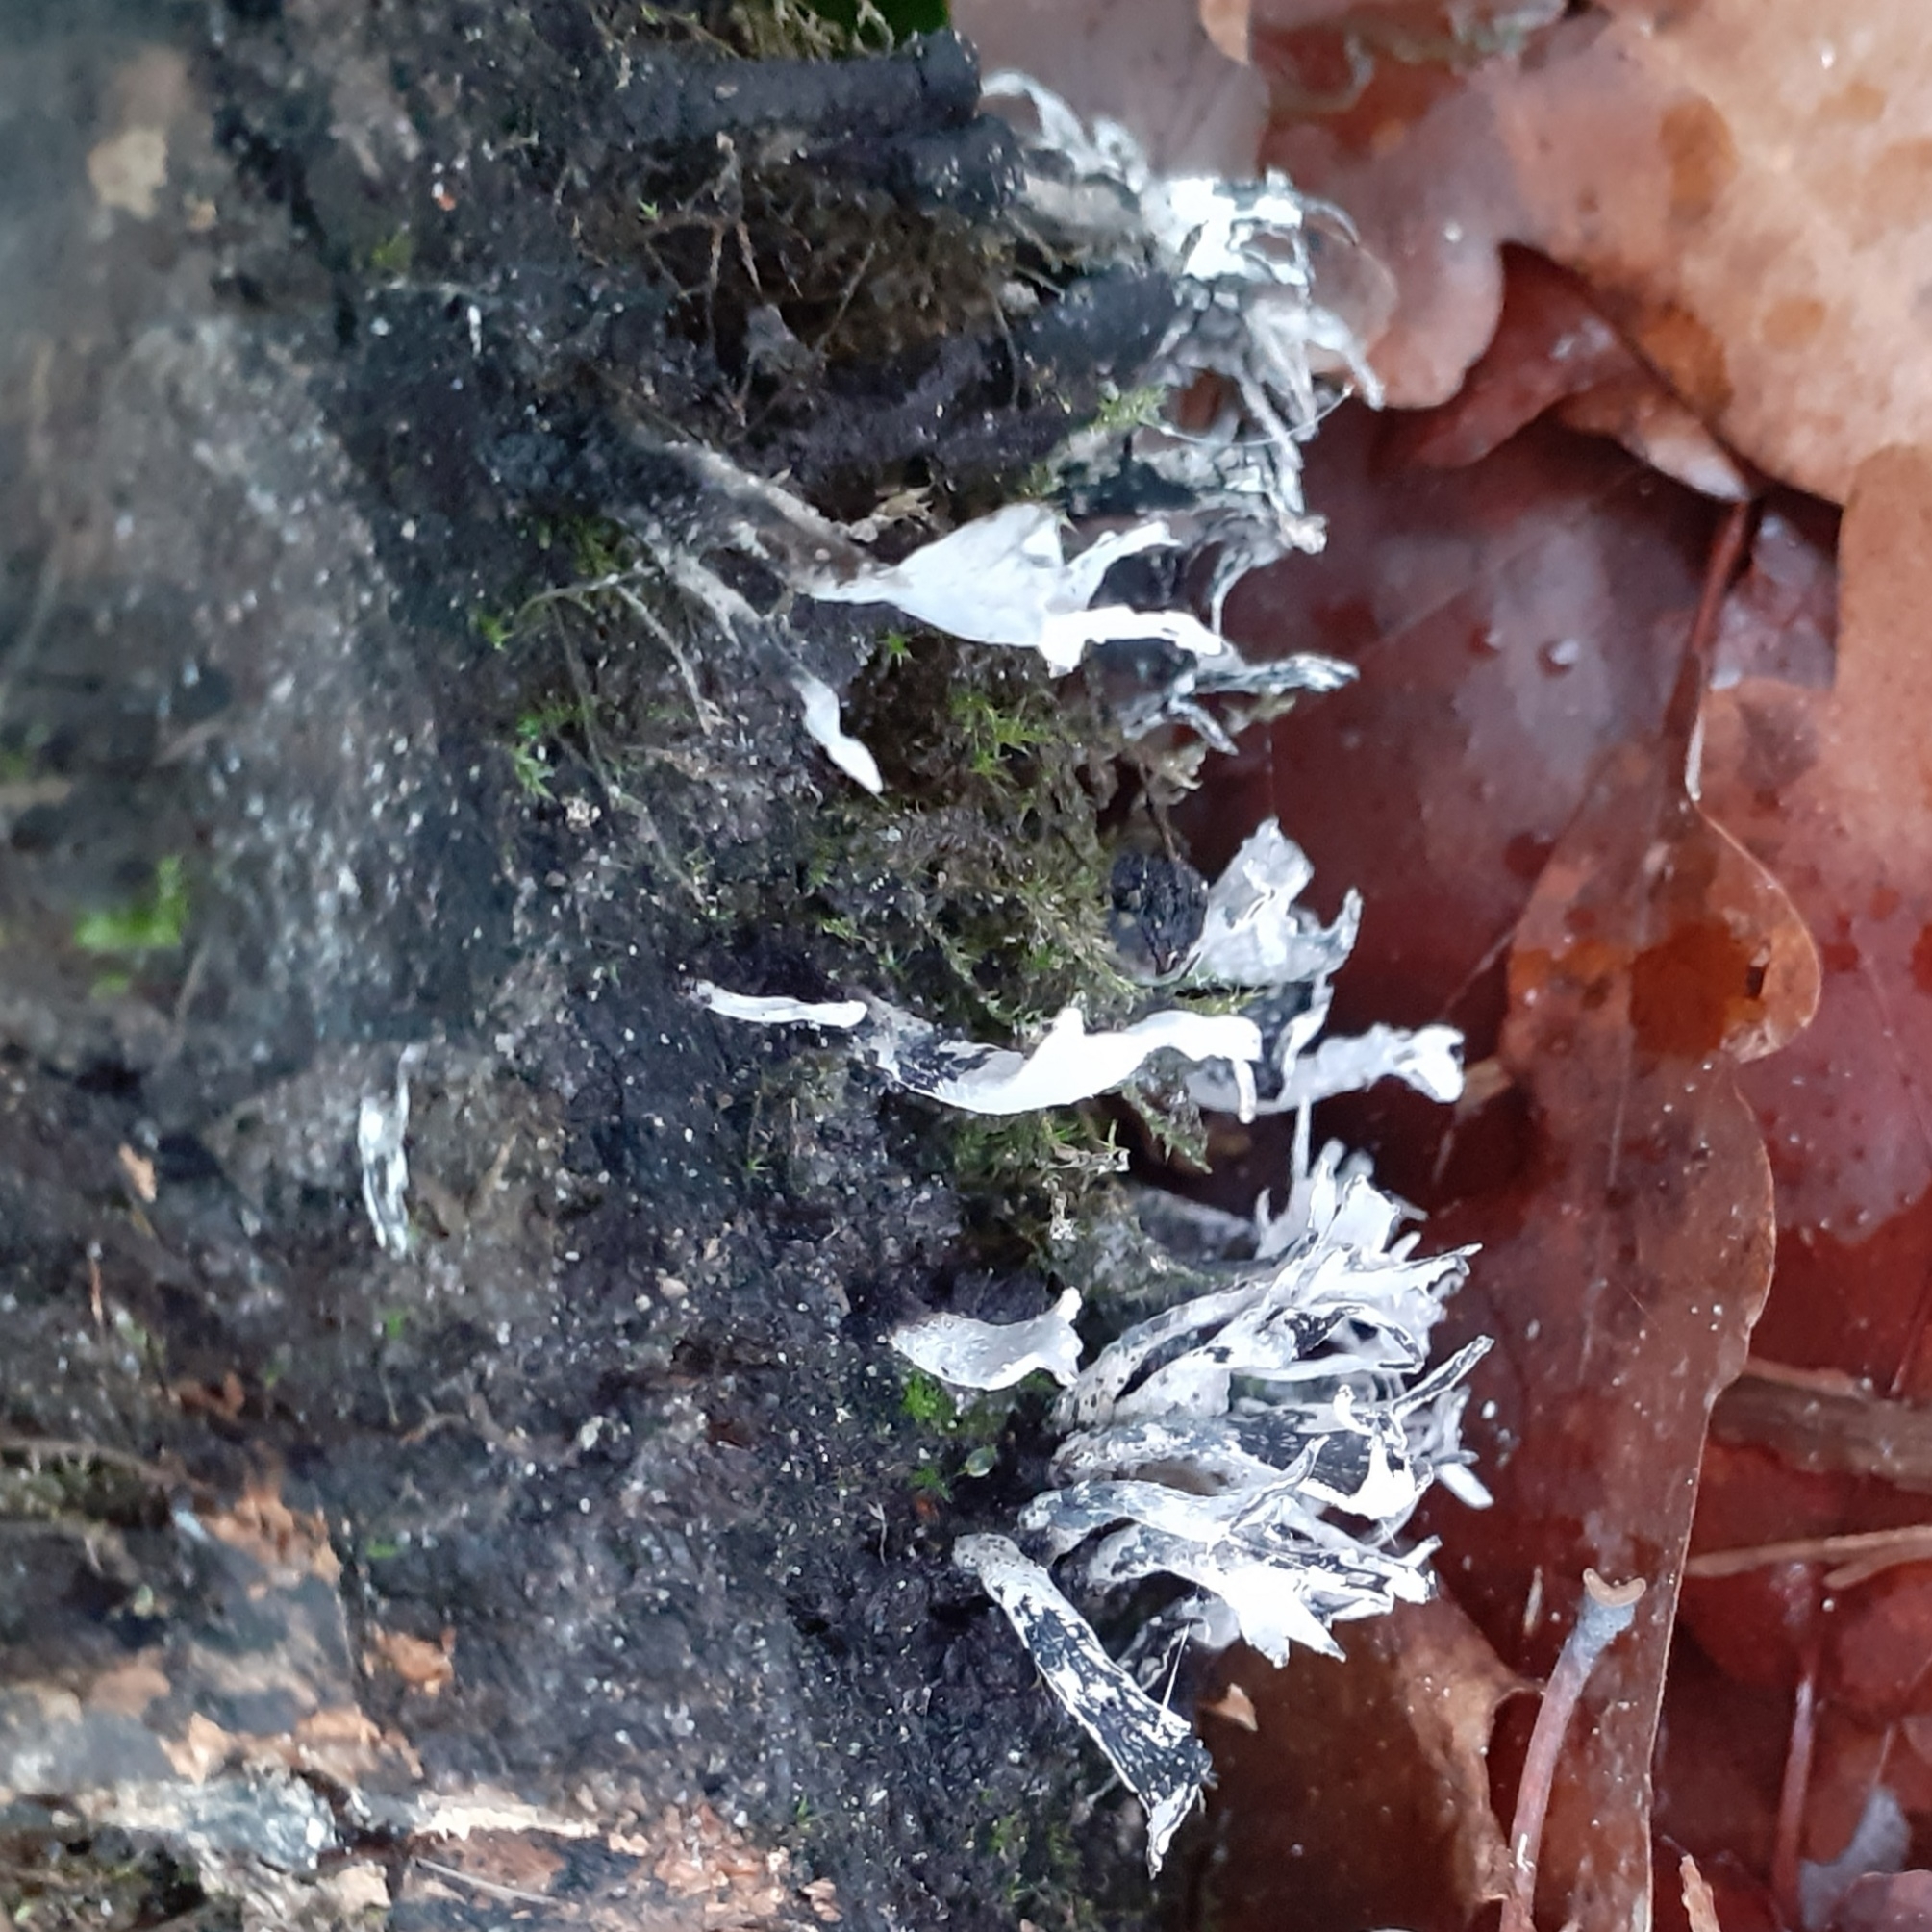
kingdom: Fungi
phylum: Ascomycota
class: Sordariomycetes
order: Xylariales
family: Xylariaceae
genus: Xylaria
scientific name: Xylaria hypoxylon
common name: Candle-snuff fungus
